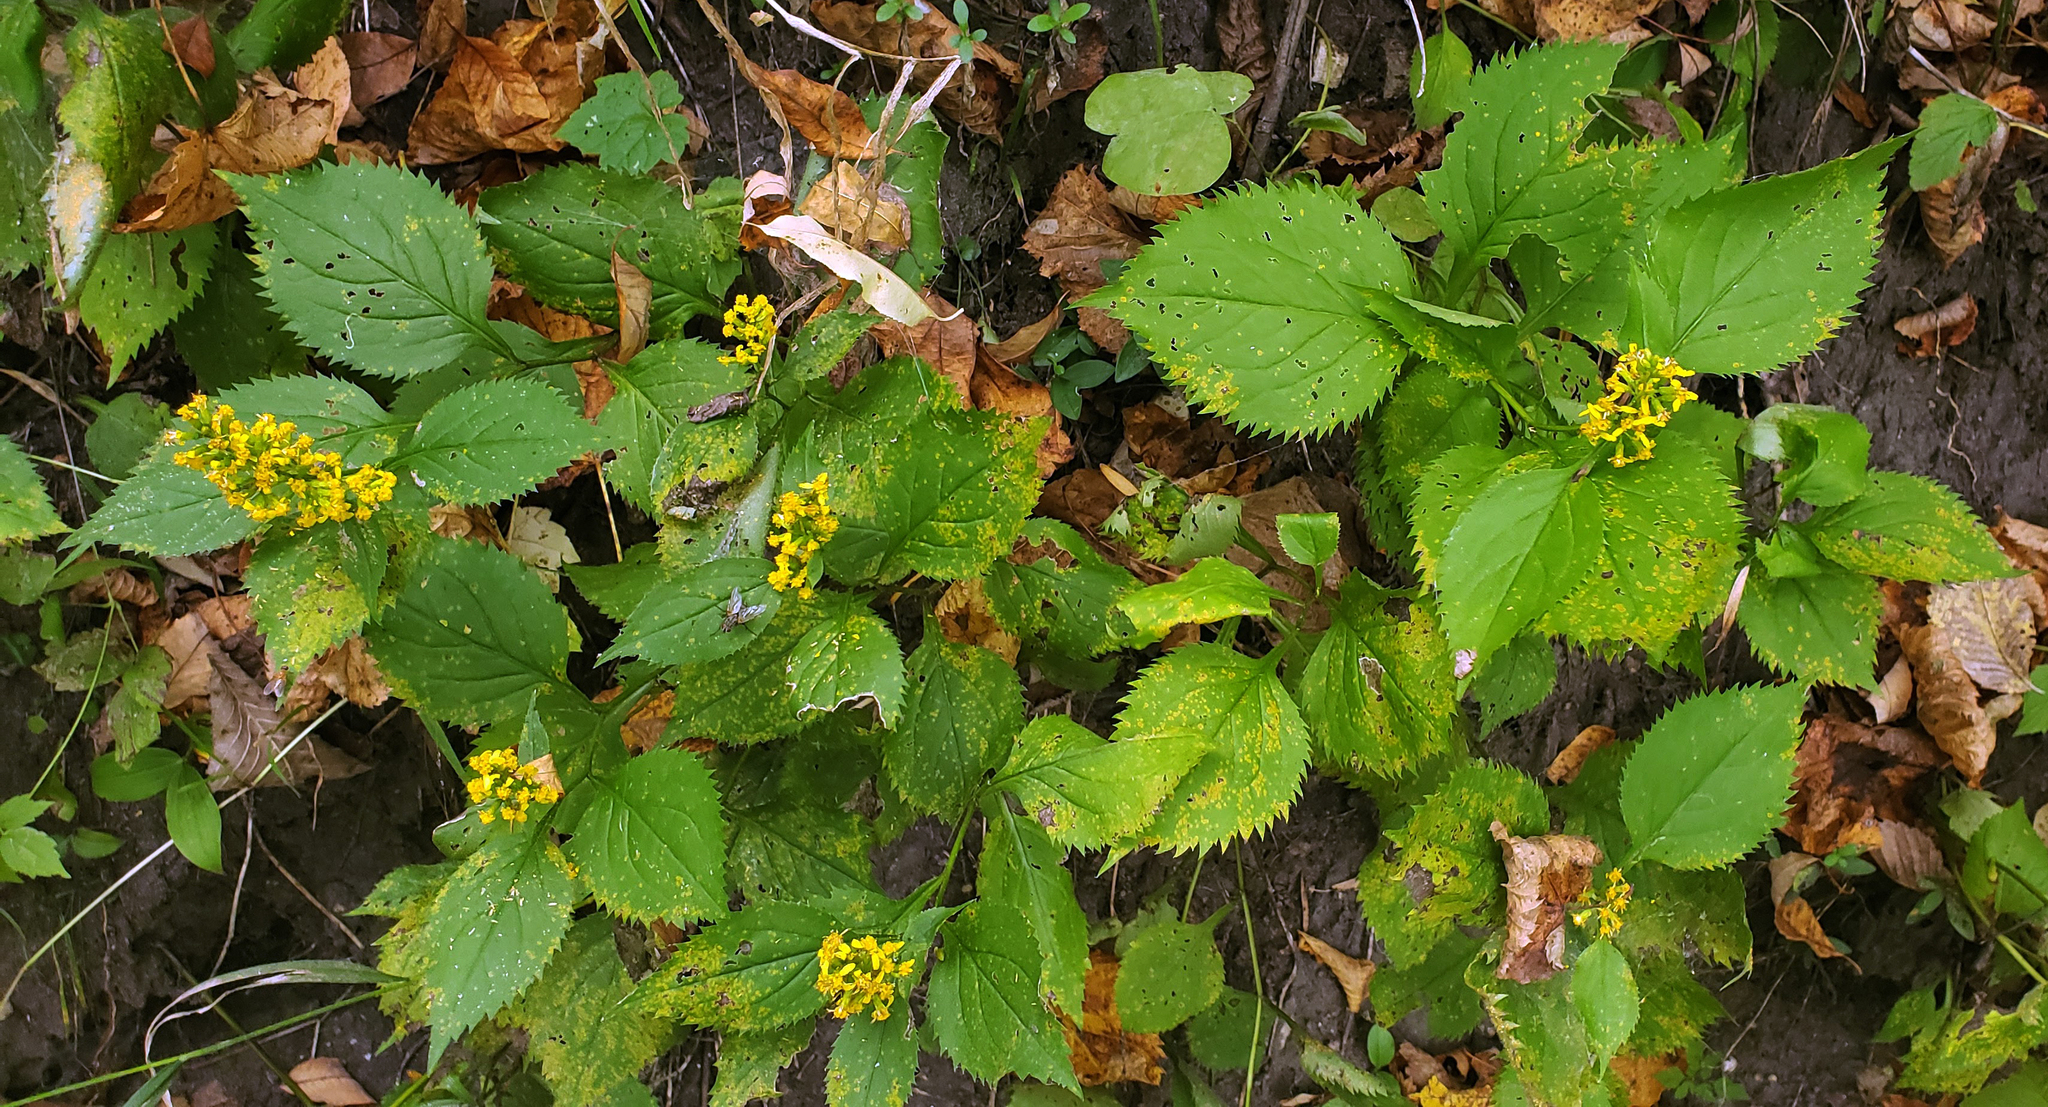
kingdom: Plantae
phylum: Tracheophyta
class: Magnoliopsida
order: Asterales
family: Asteraceae
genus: Solidago
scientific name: Solidago flexicaulis
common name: Zig-zag goldenrod
